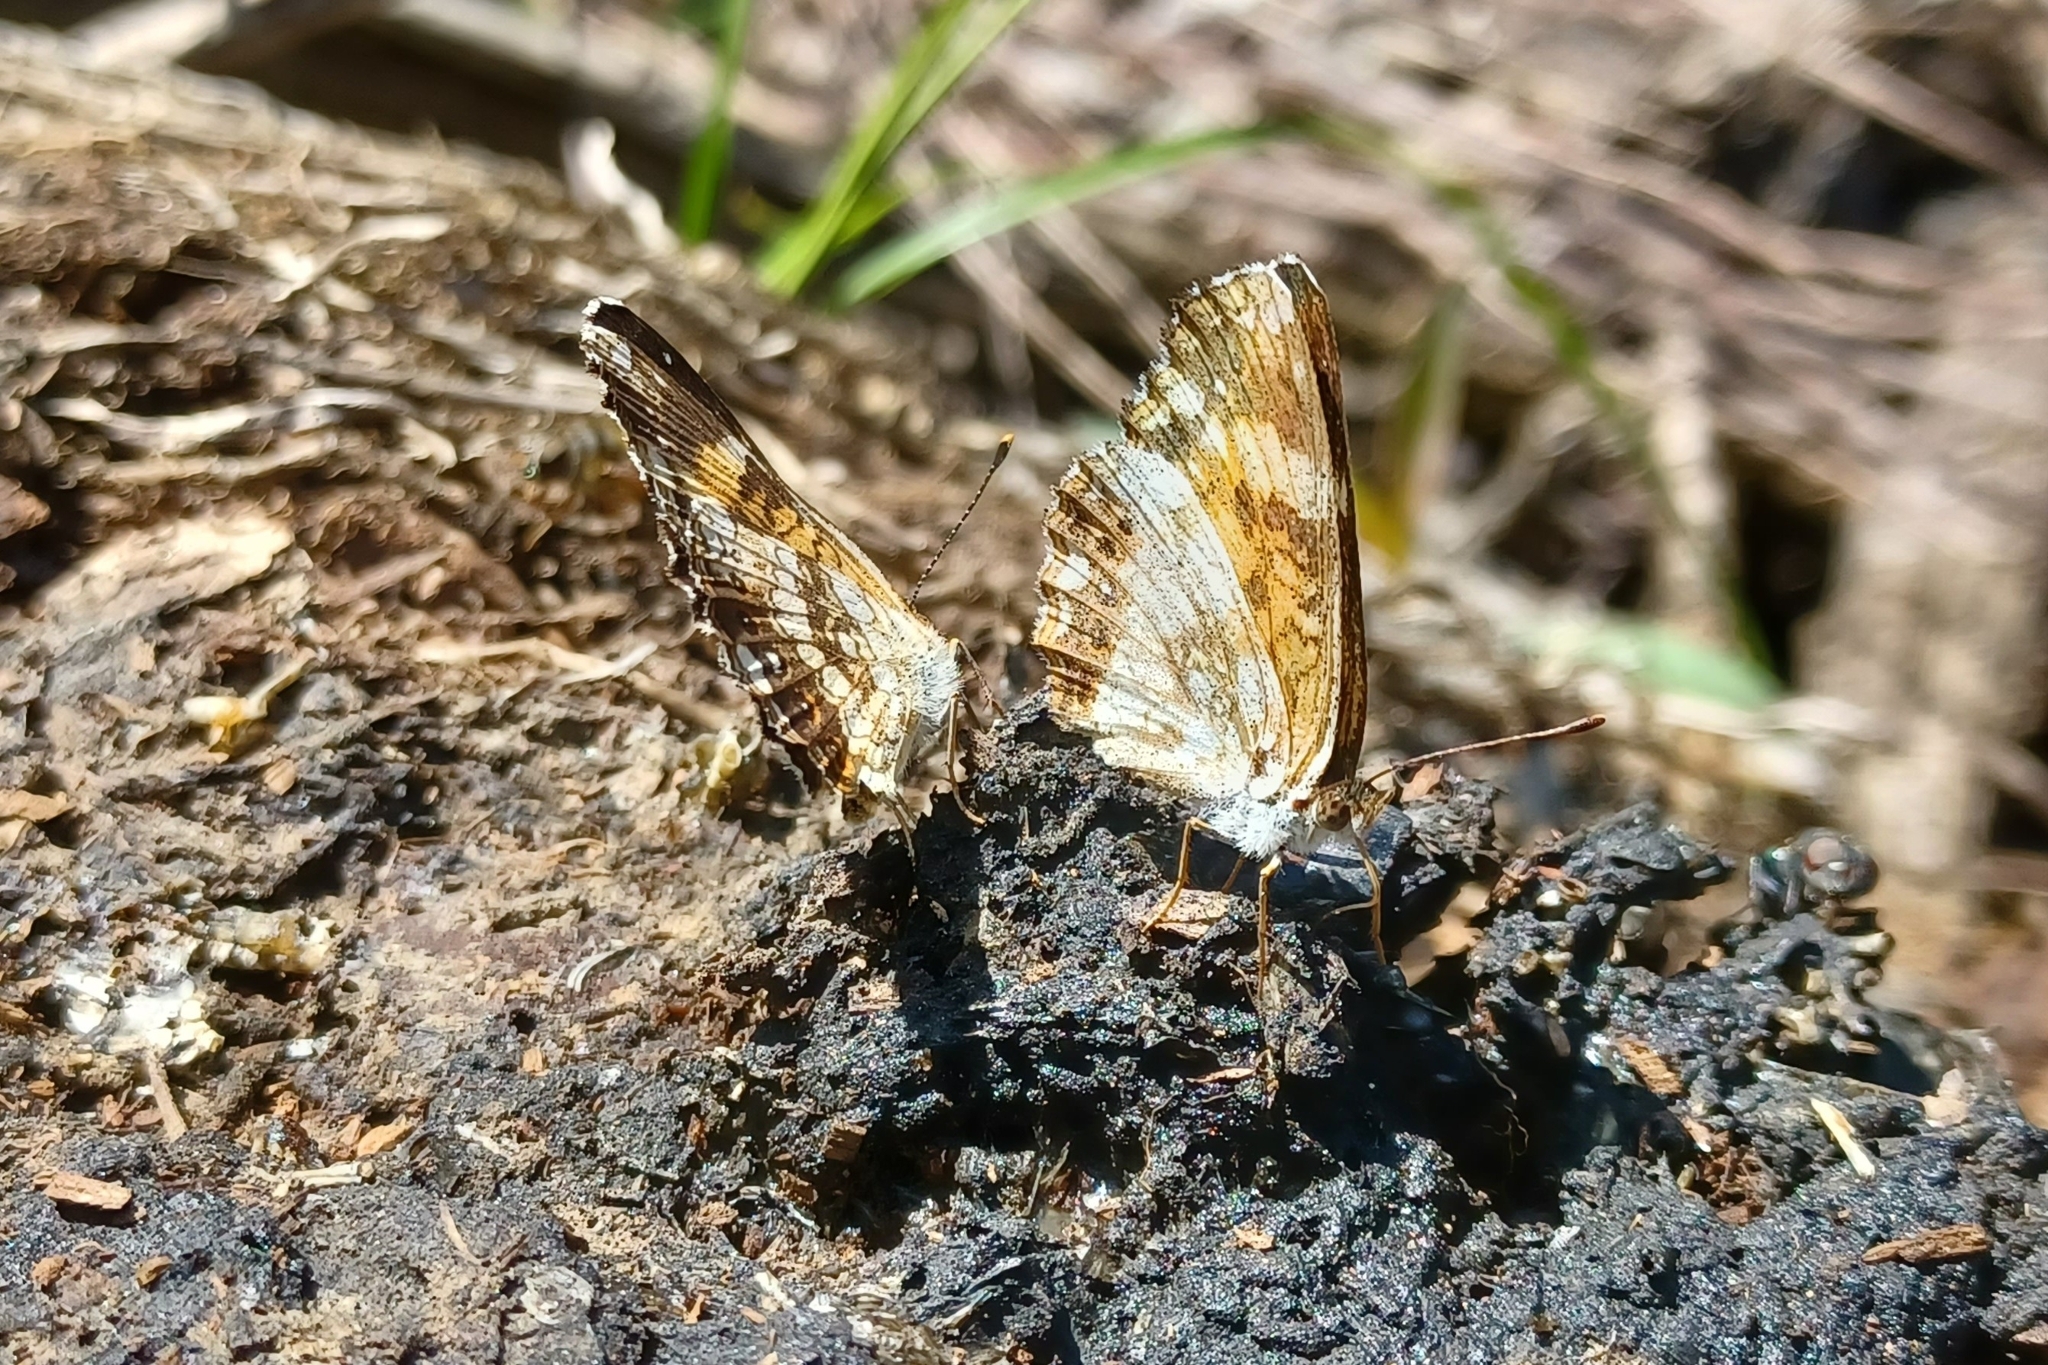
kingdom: Animalia
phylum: Arthropoda
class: Insecta
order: Lepidoptera
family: Nymphalidae
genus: Chlosyne
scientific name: Chlosyne nycteis
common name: Silvery checkerspot
